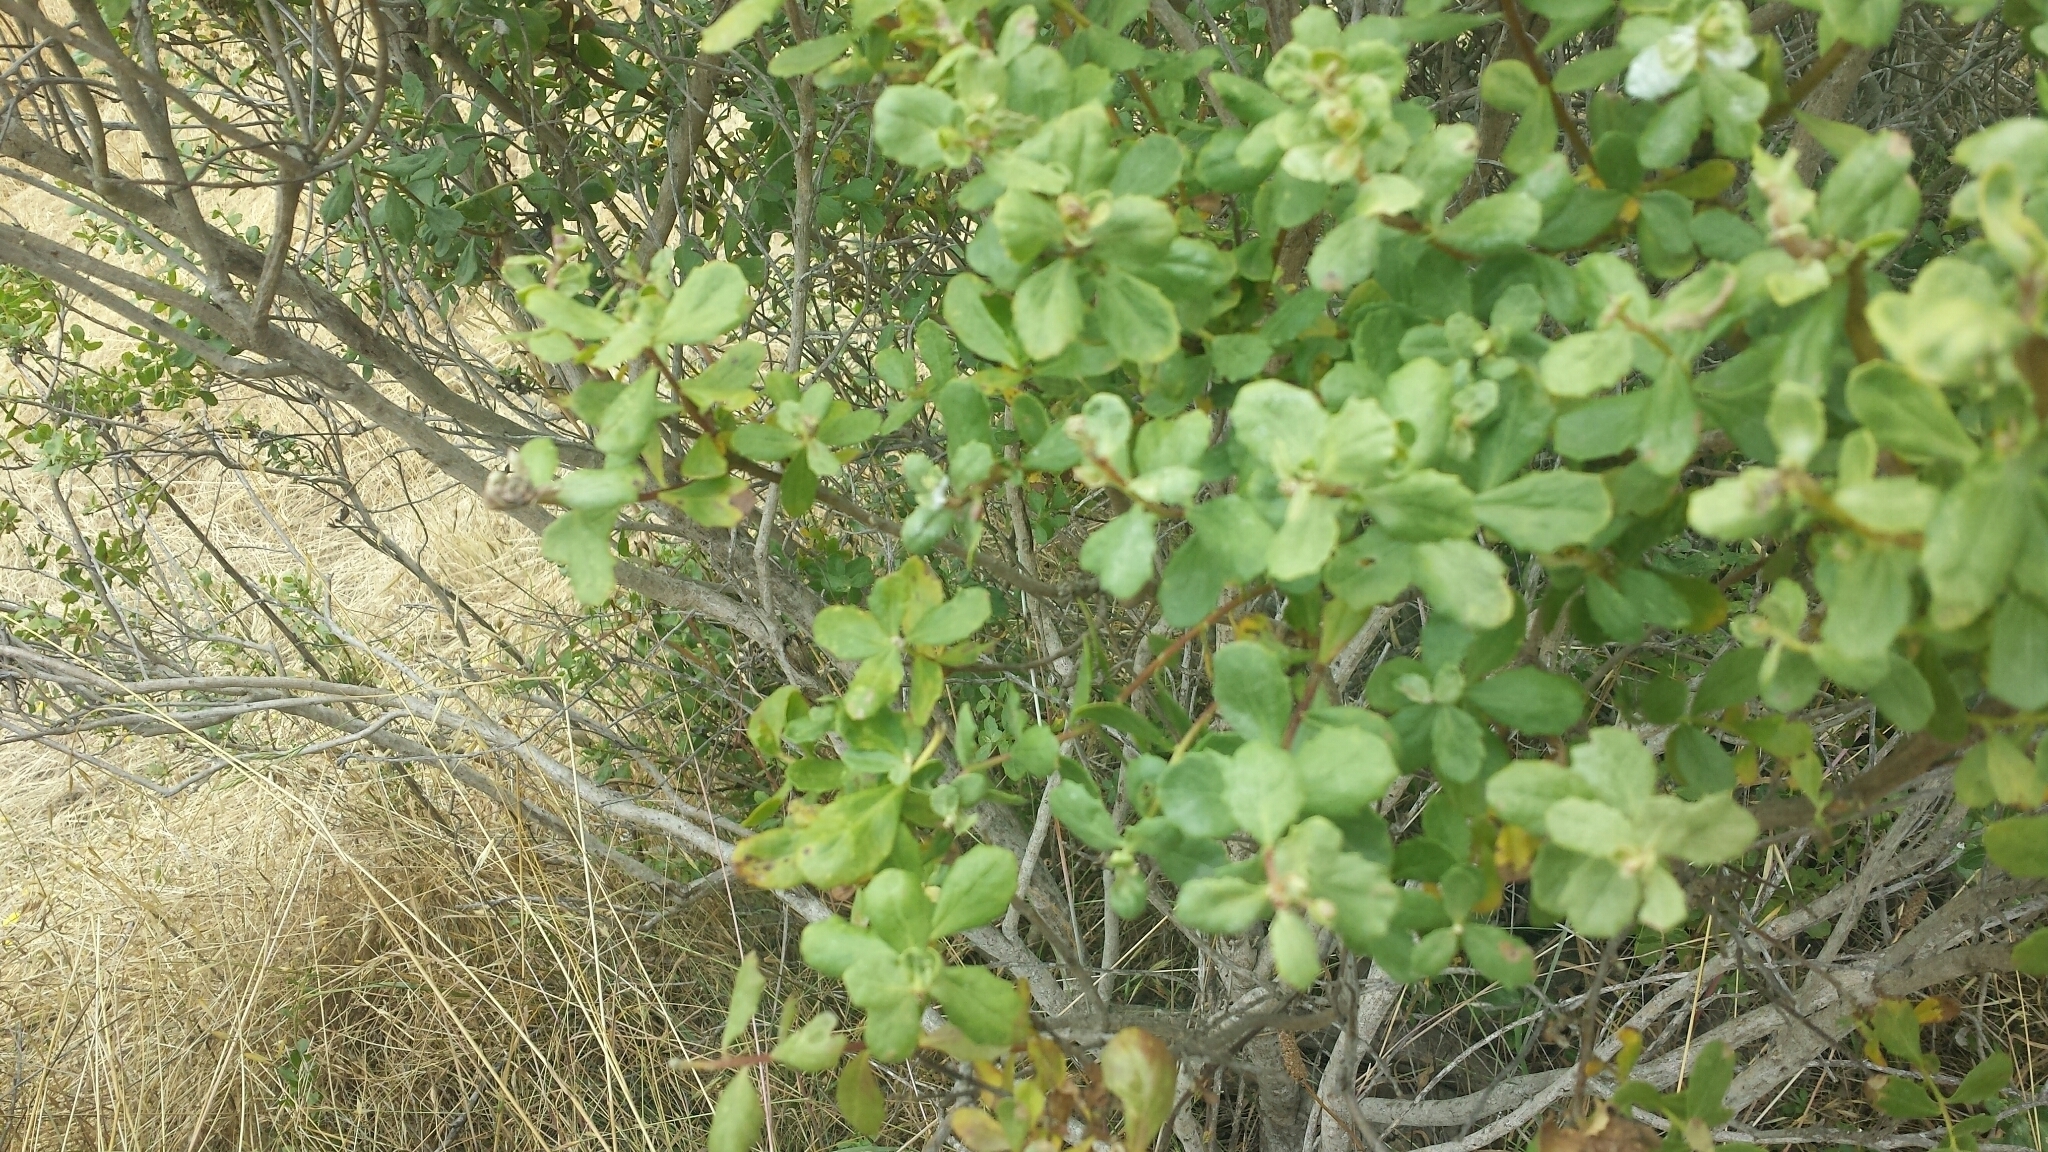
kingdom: Plantae
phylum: Tracheophyta
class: Magnoliopsida
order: Asterales
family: Asteraceae
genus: Baccharis
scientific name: Baccharis pilularis
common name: Coyotebrush
